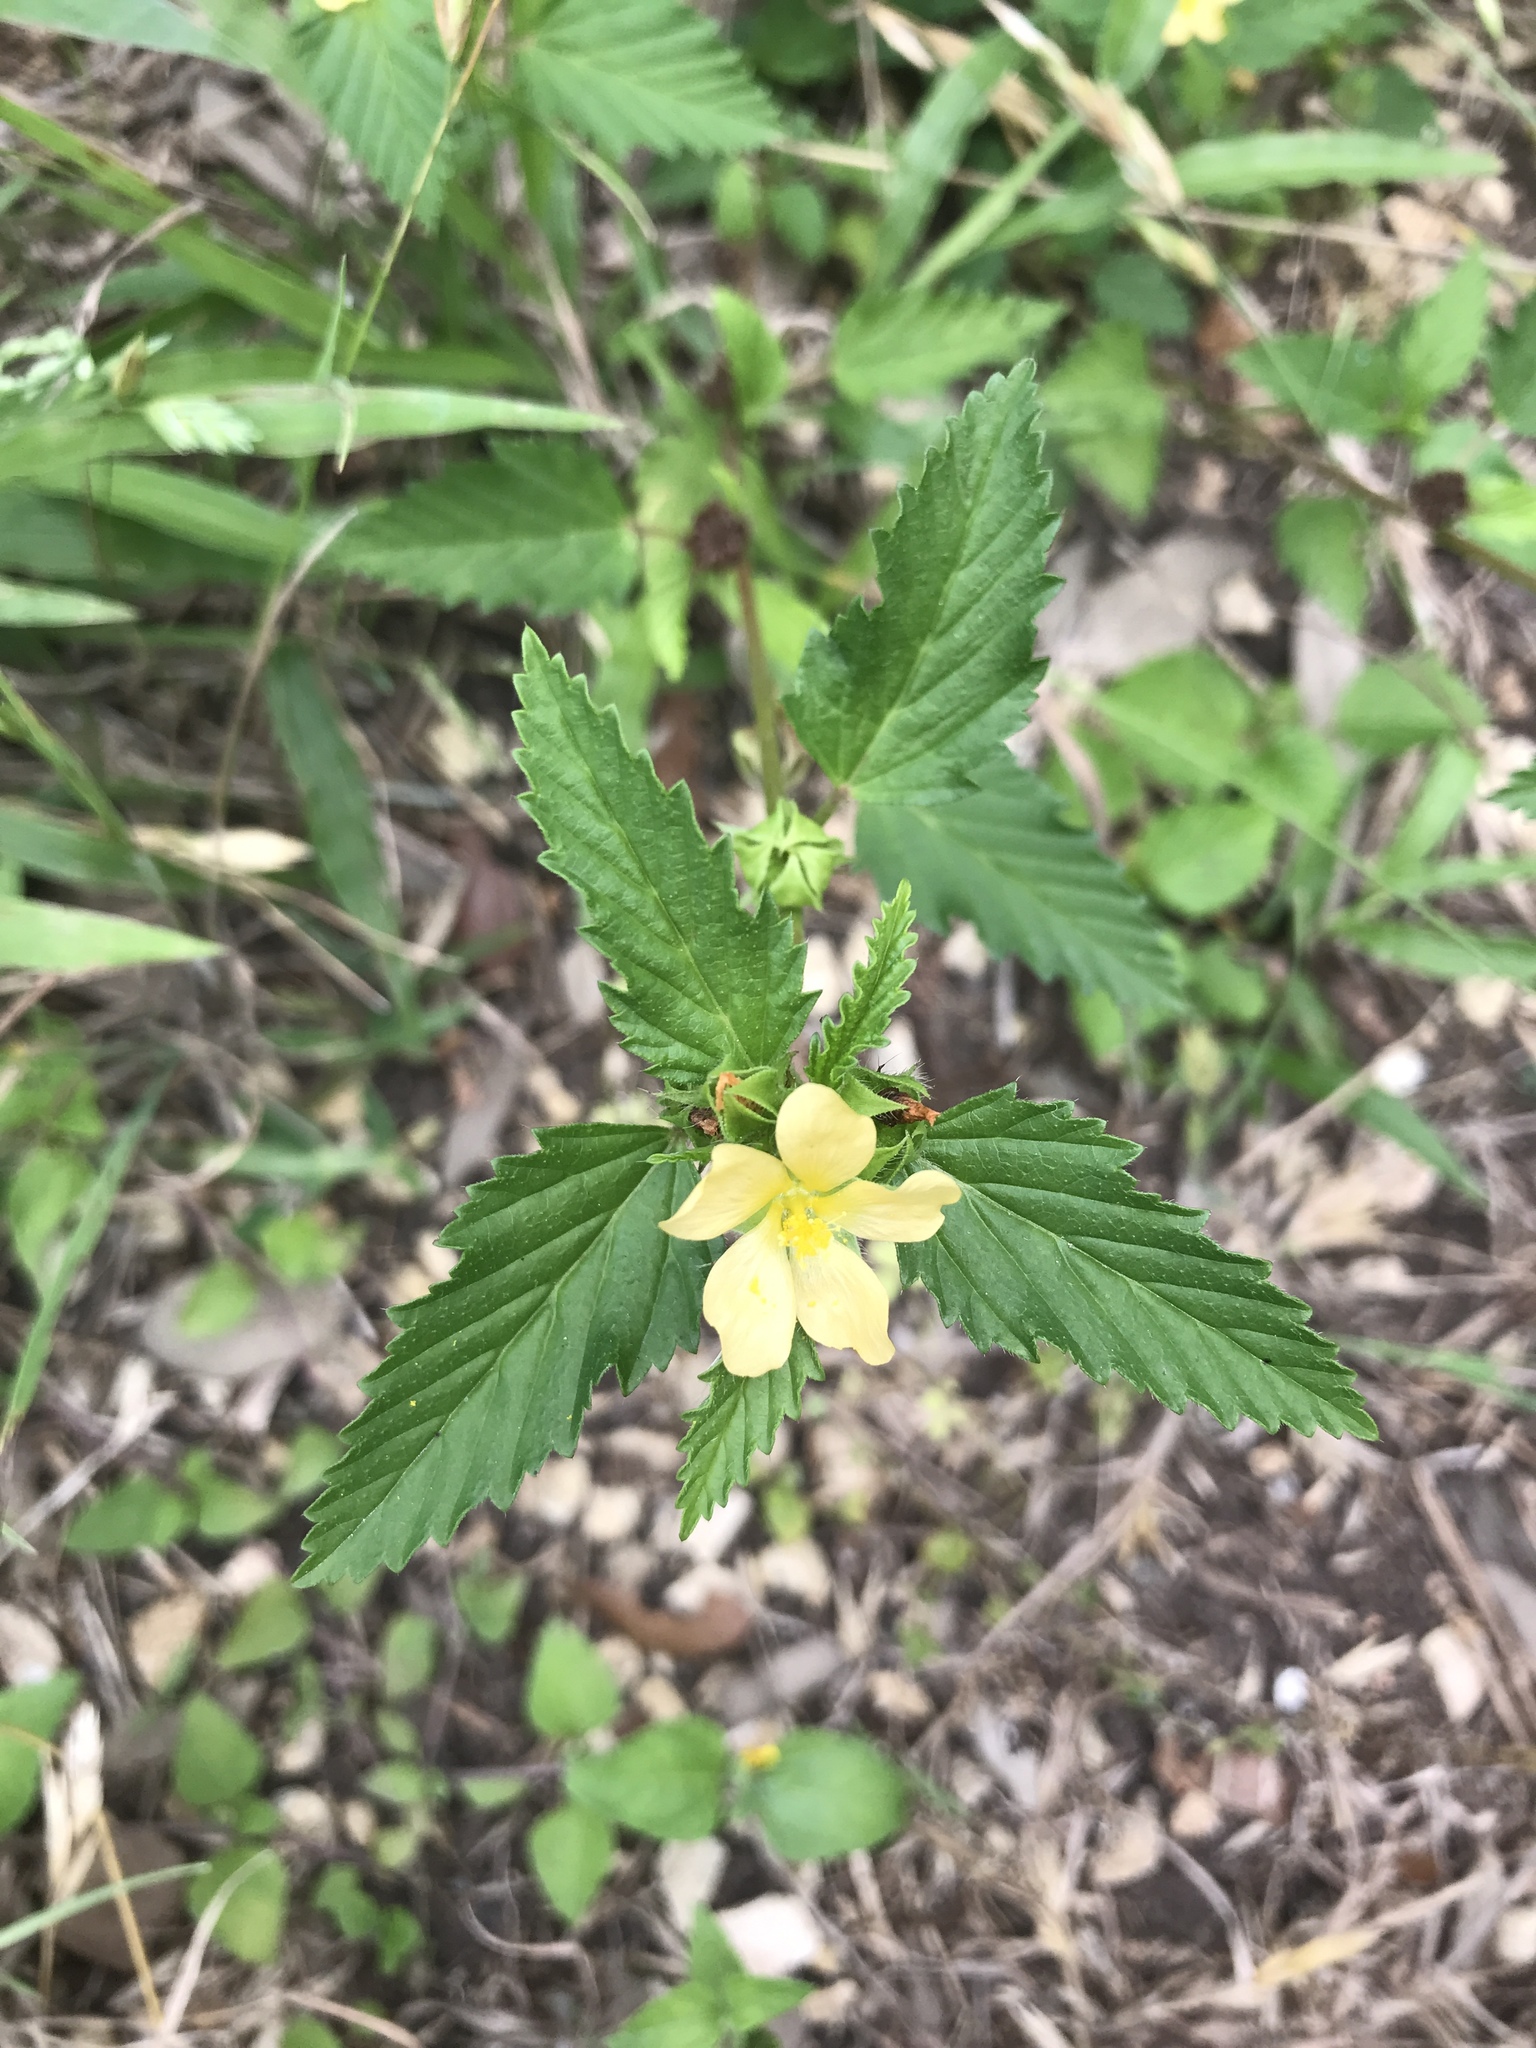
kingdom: Plantae
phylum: Tracheophyta
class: Magnoliopsida
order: Malvales
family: Malvaceae
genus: Malvastrum
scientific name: Malvastrum coromandelianum
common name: Threelobe false mallow
